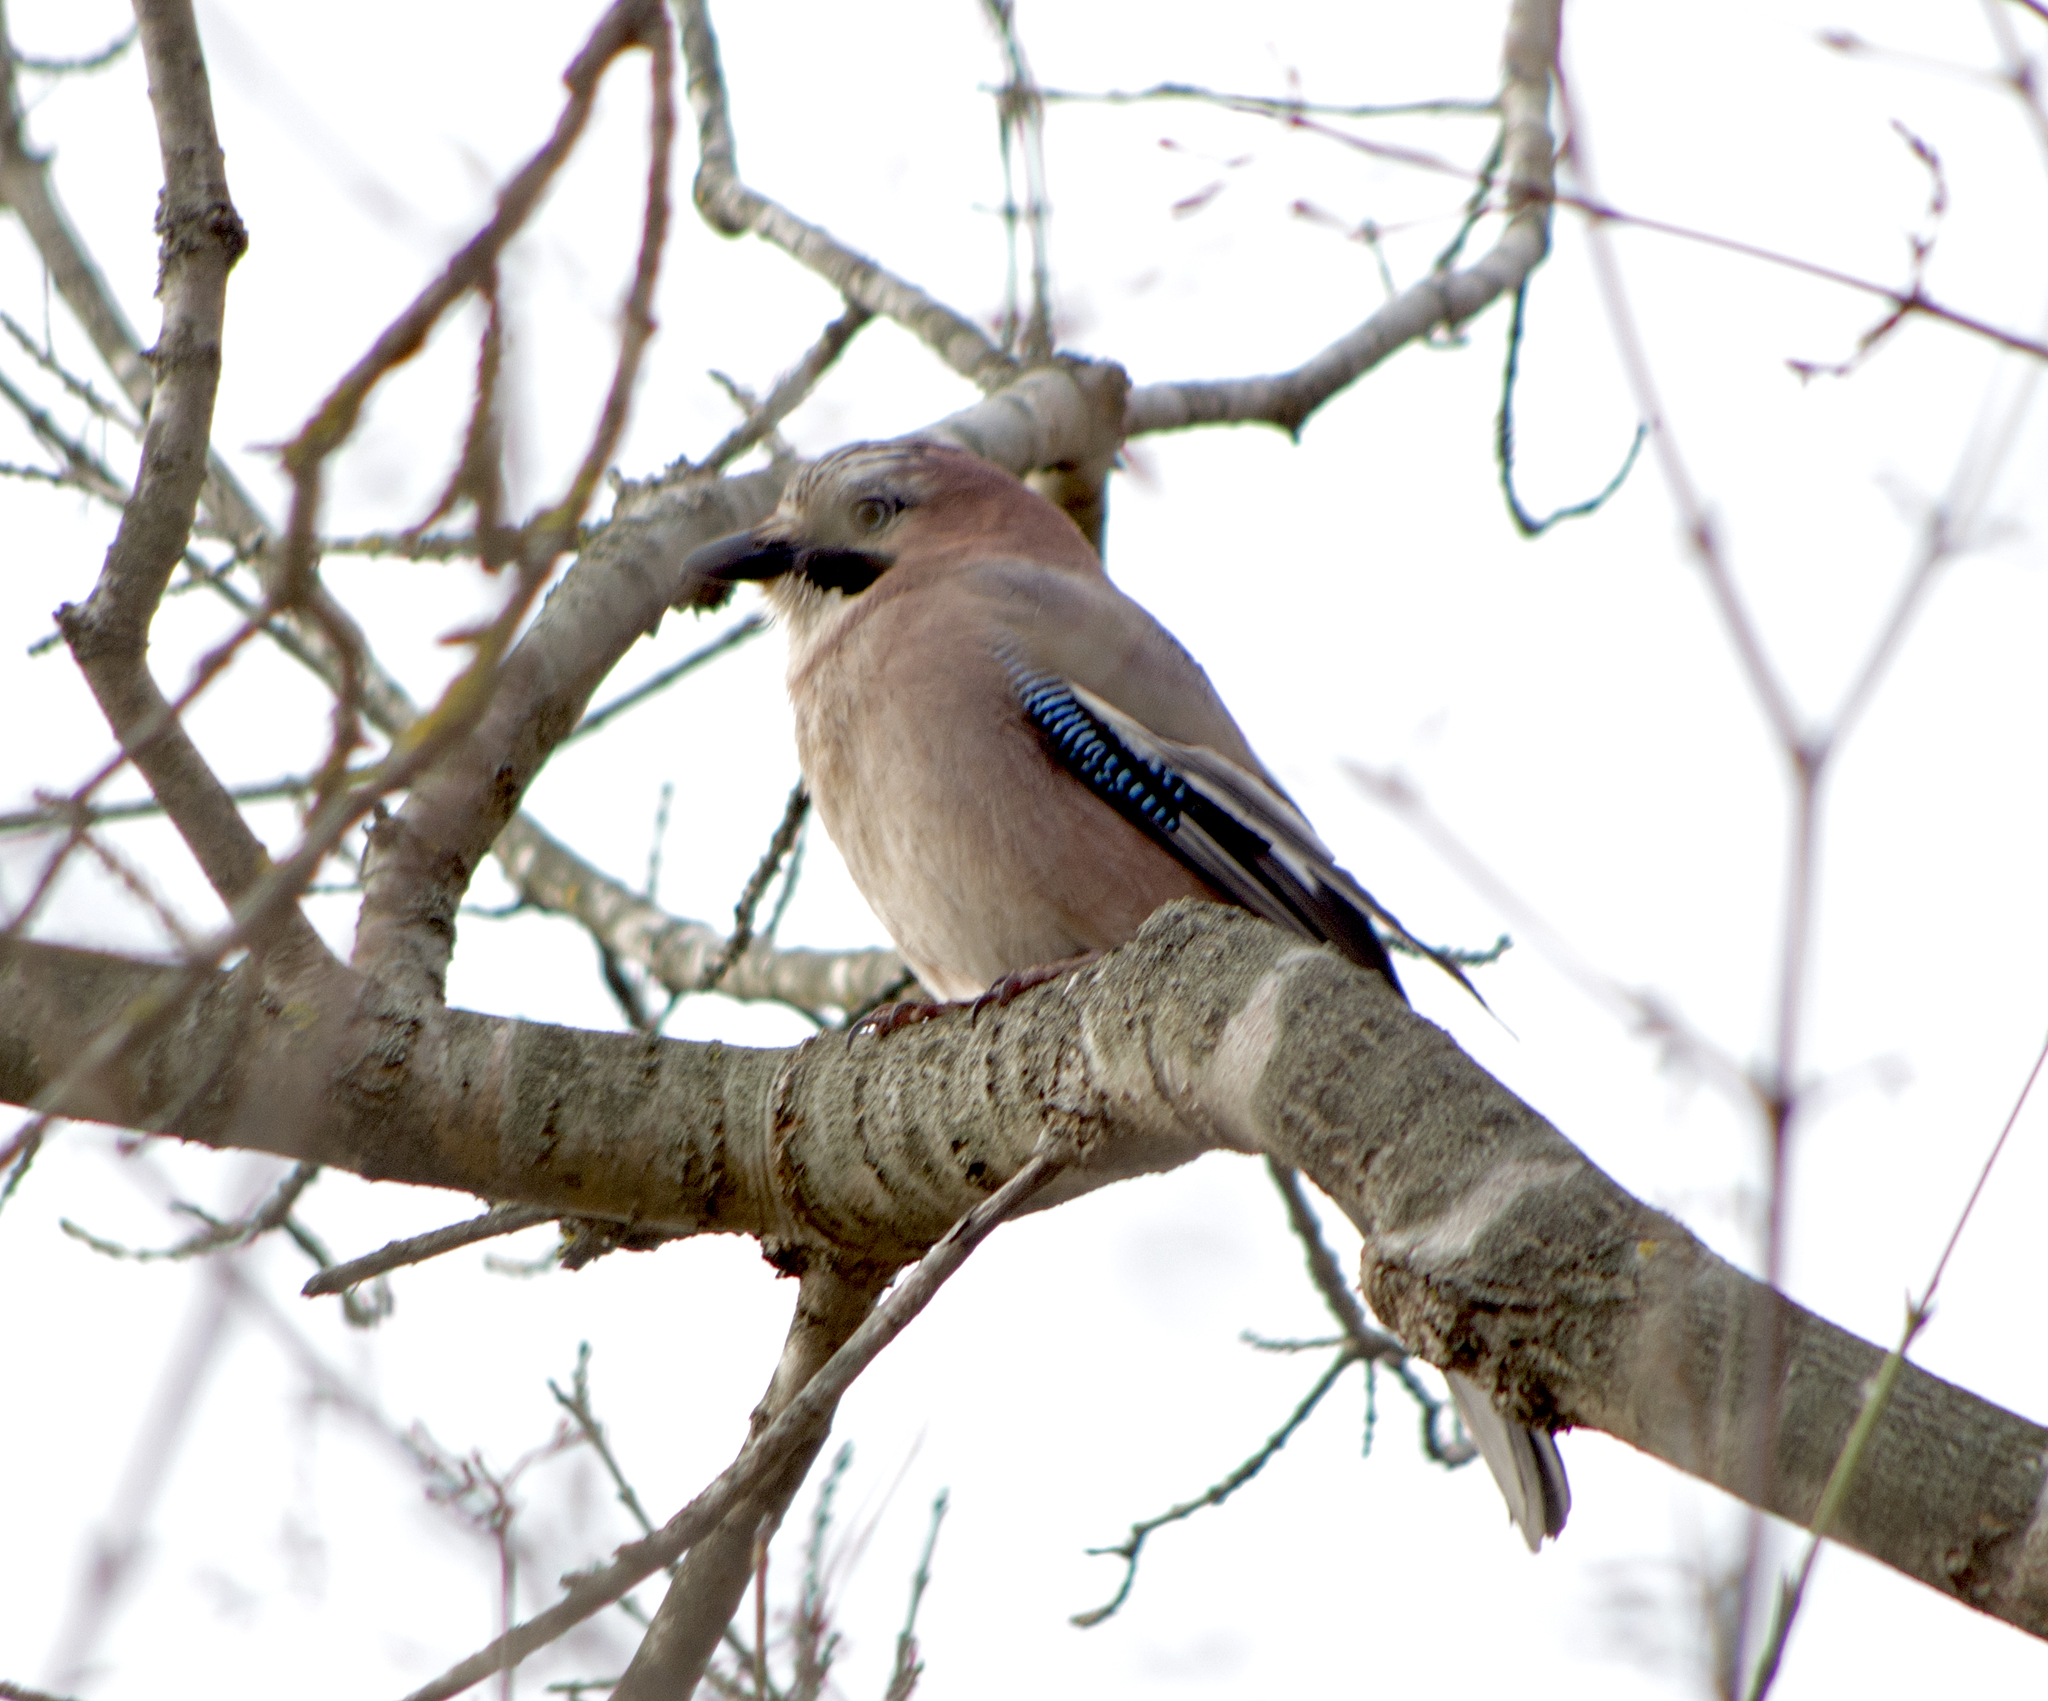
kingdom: Animalia
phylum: Chordata
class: Aves
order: Passeriformes
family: Corvidae
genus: Garrulus
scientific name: Garrulus glandarius
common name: Eurasian jay
